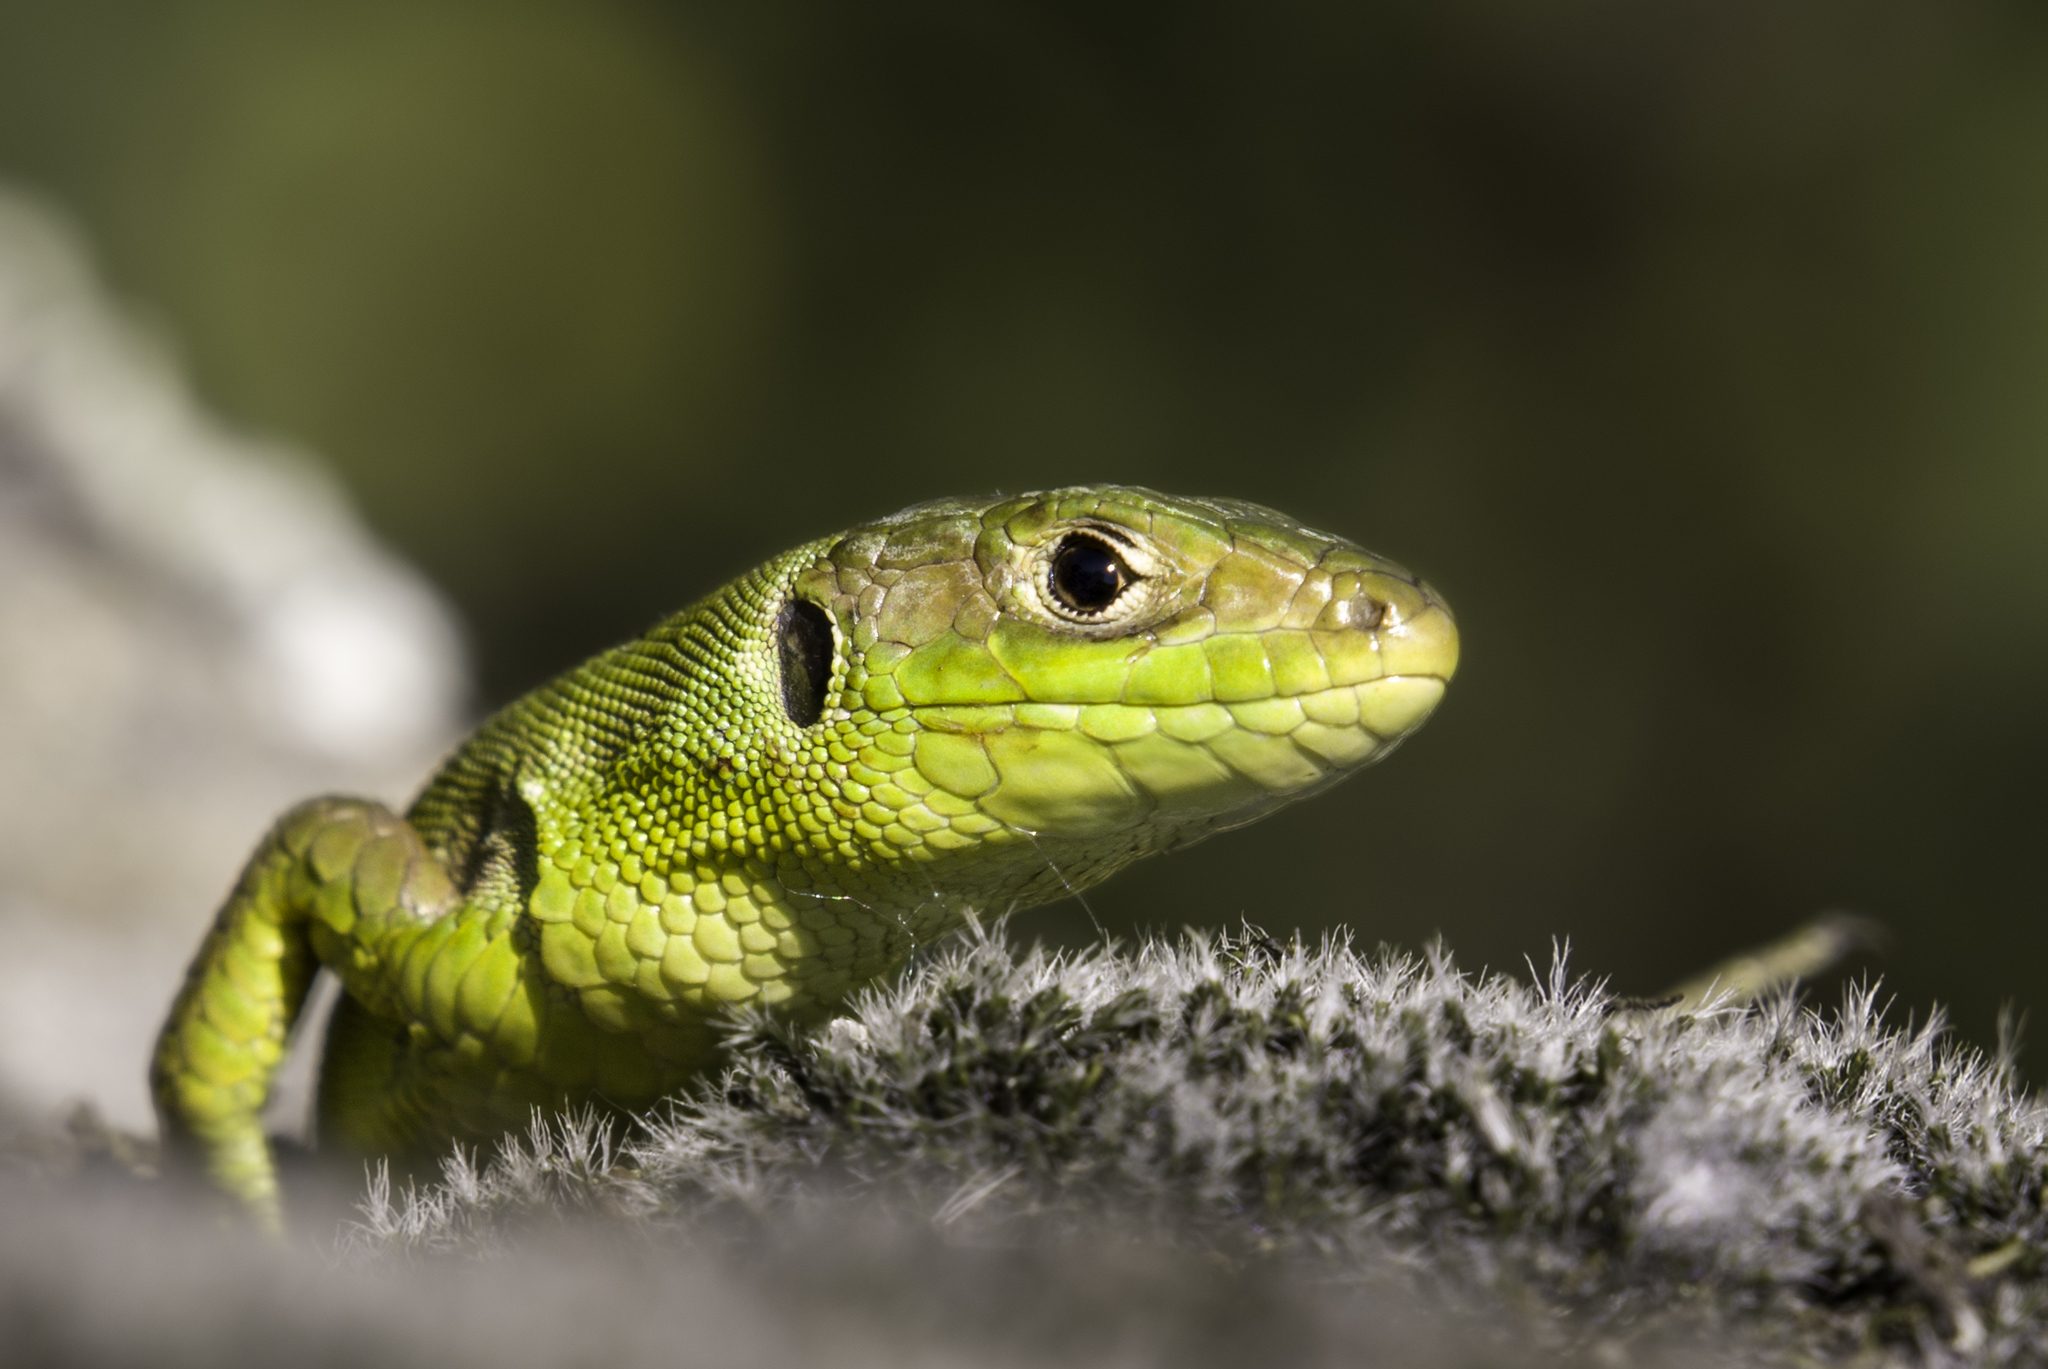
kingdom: Animalia
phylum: Chordata
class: Squamata
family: Lacertidae
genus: Lacerta
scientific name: Lacerta bilineata
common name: Western green lizard
